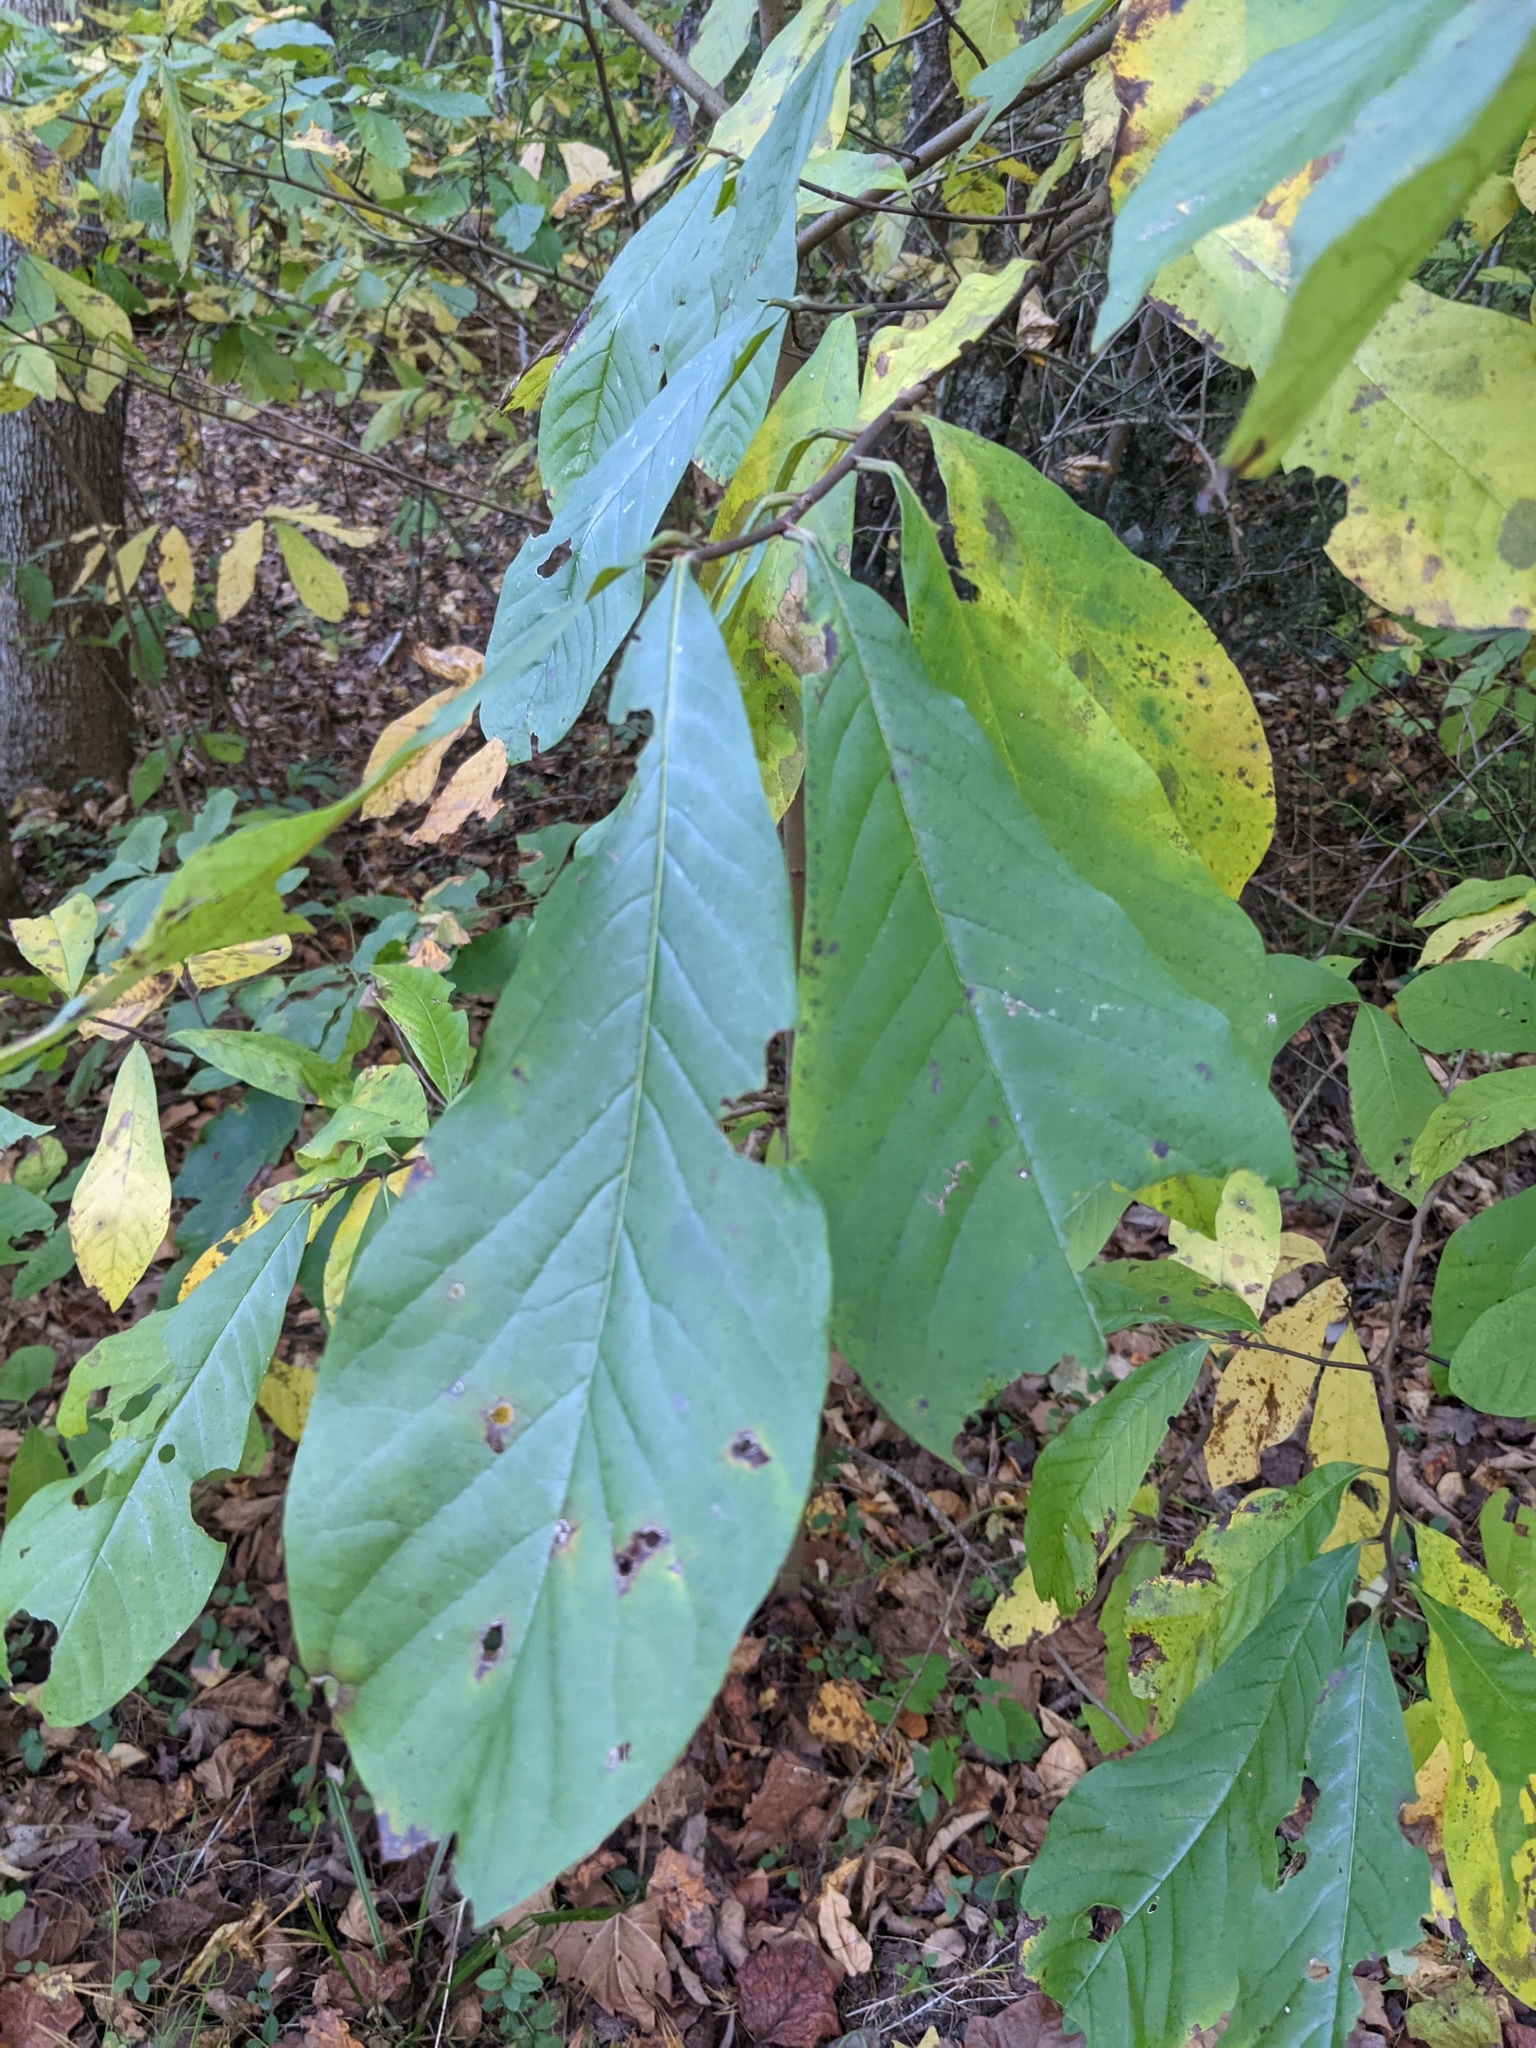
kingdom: Plantae
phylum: Tracheophyta
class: Magnoliopsida
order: Magnoliales
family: Annonaceae
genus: Asimina
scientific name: Asimina triloba
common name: Dog-banana
